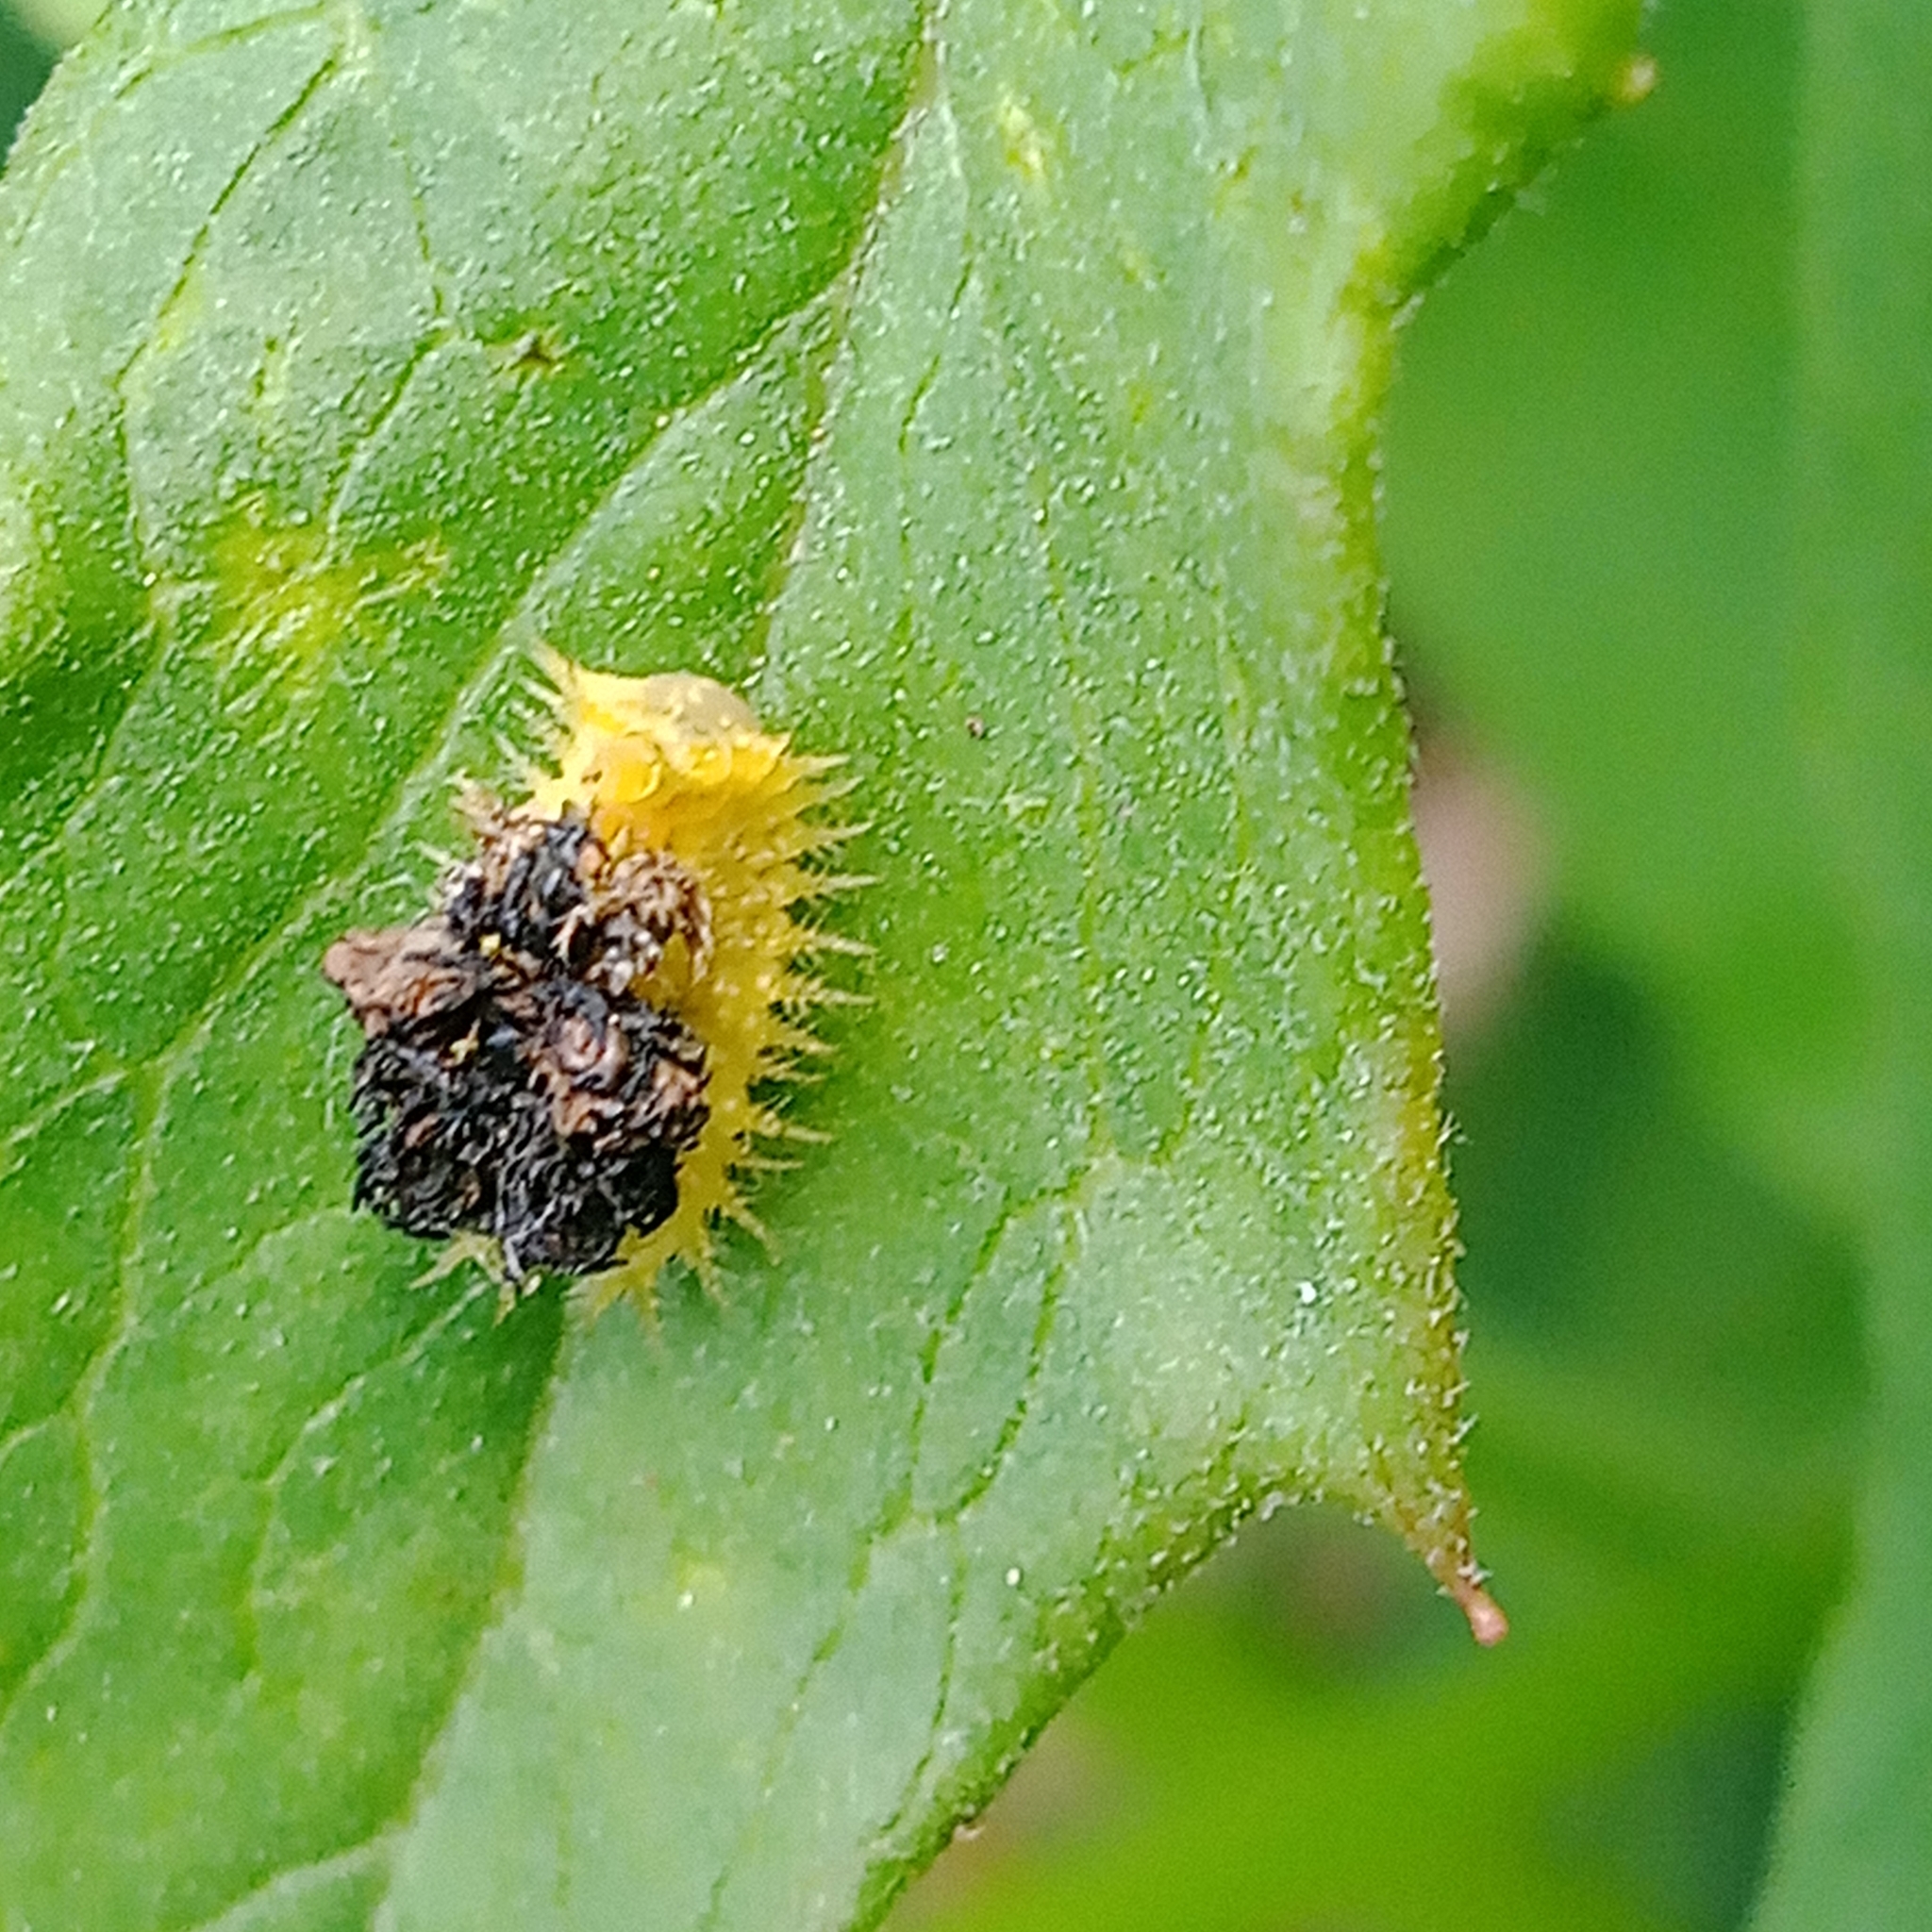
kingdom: Animalia
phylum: Arthropoda
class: Insecta
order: Coleoptera
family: Chrysomelidae
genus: Cassida
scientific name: Cassida panzeri
